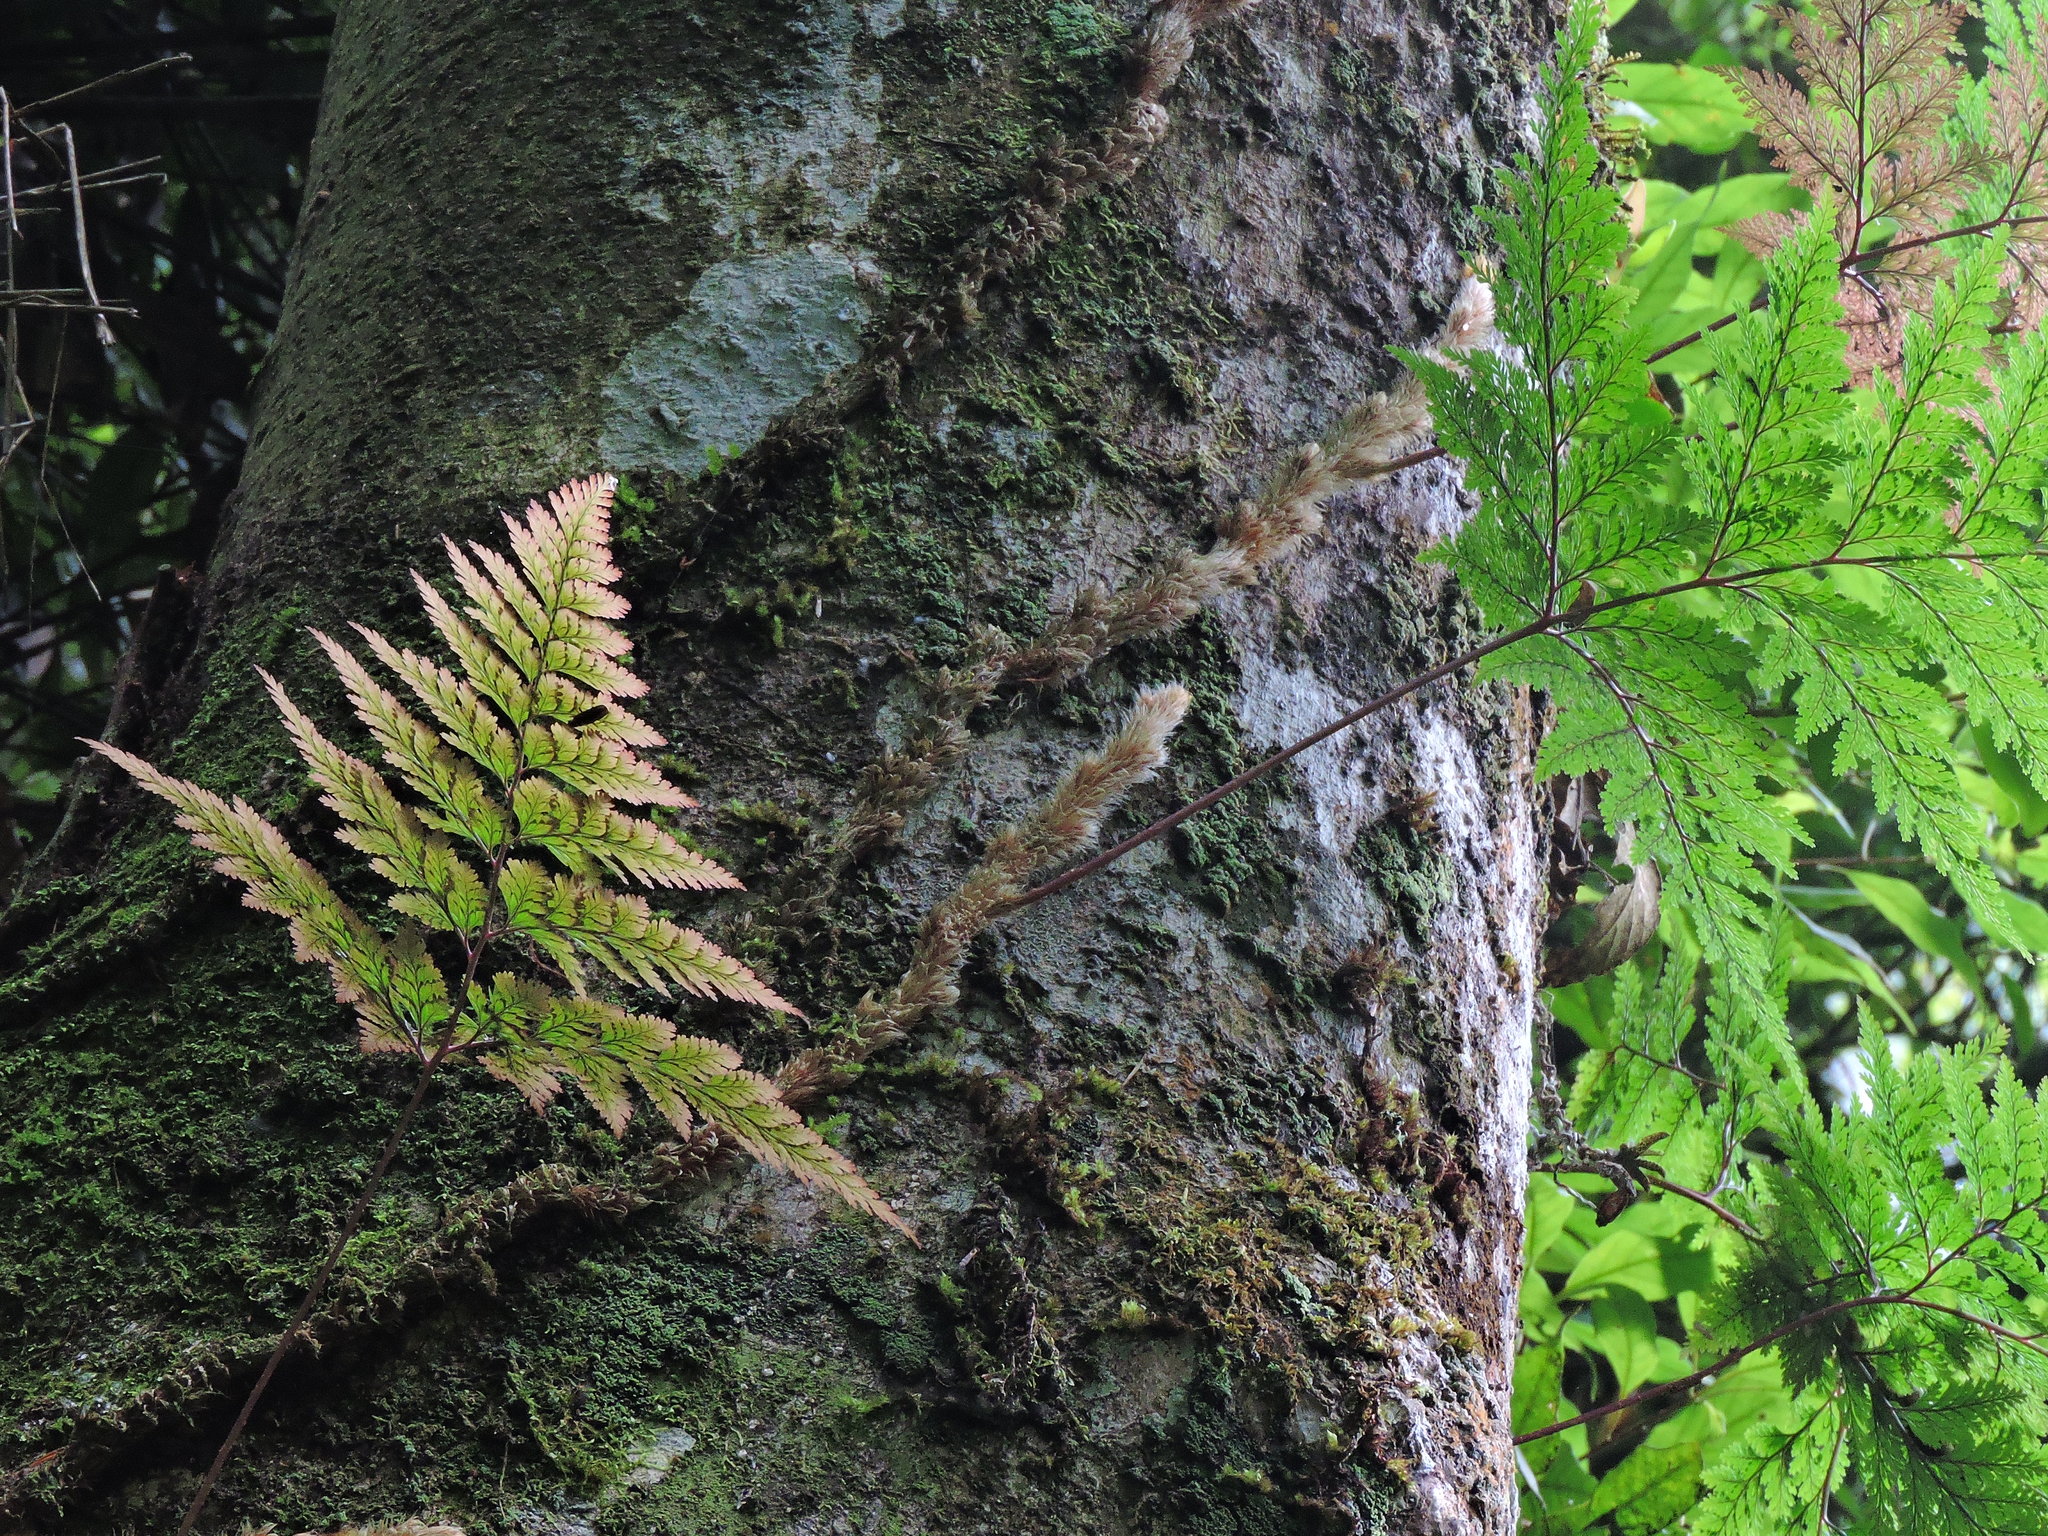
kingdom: Plantae
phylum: Tracheophyta
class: Polypodiopsida
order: Polypodiales
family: Davalliaceae
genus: Davallia
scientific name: Davallia trichomanoides
